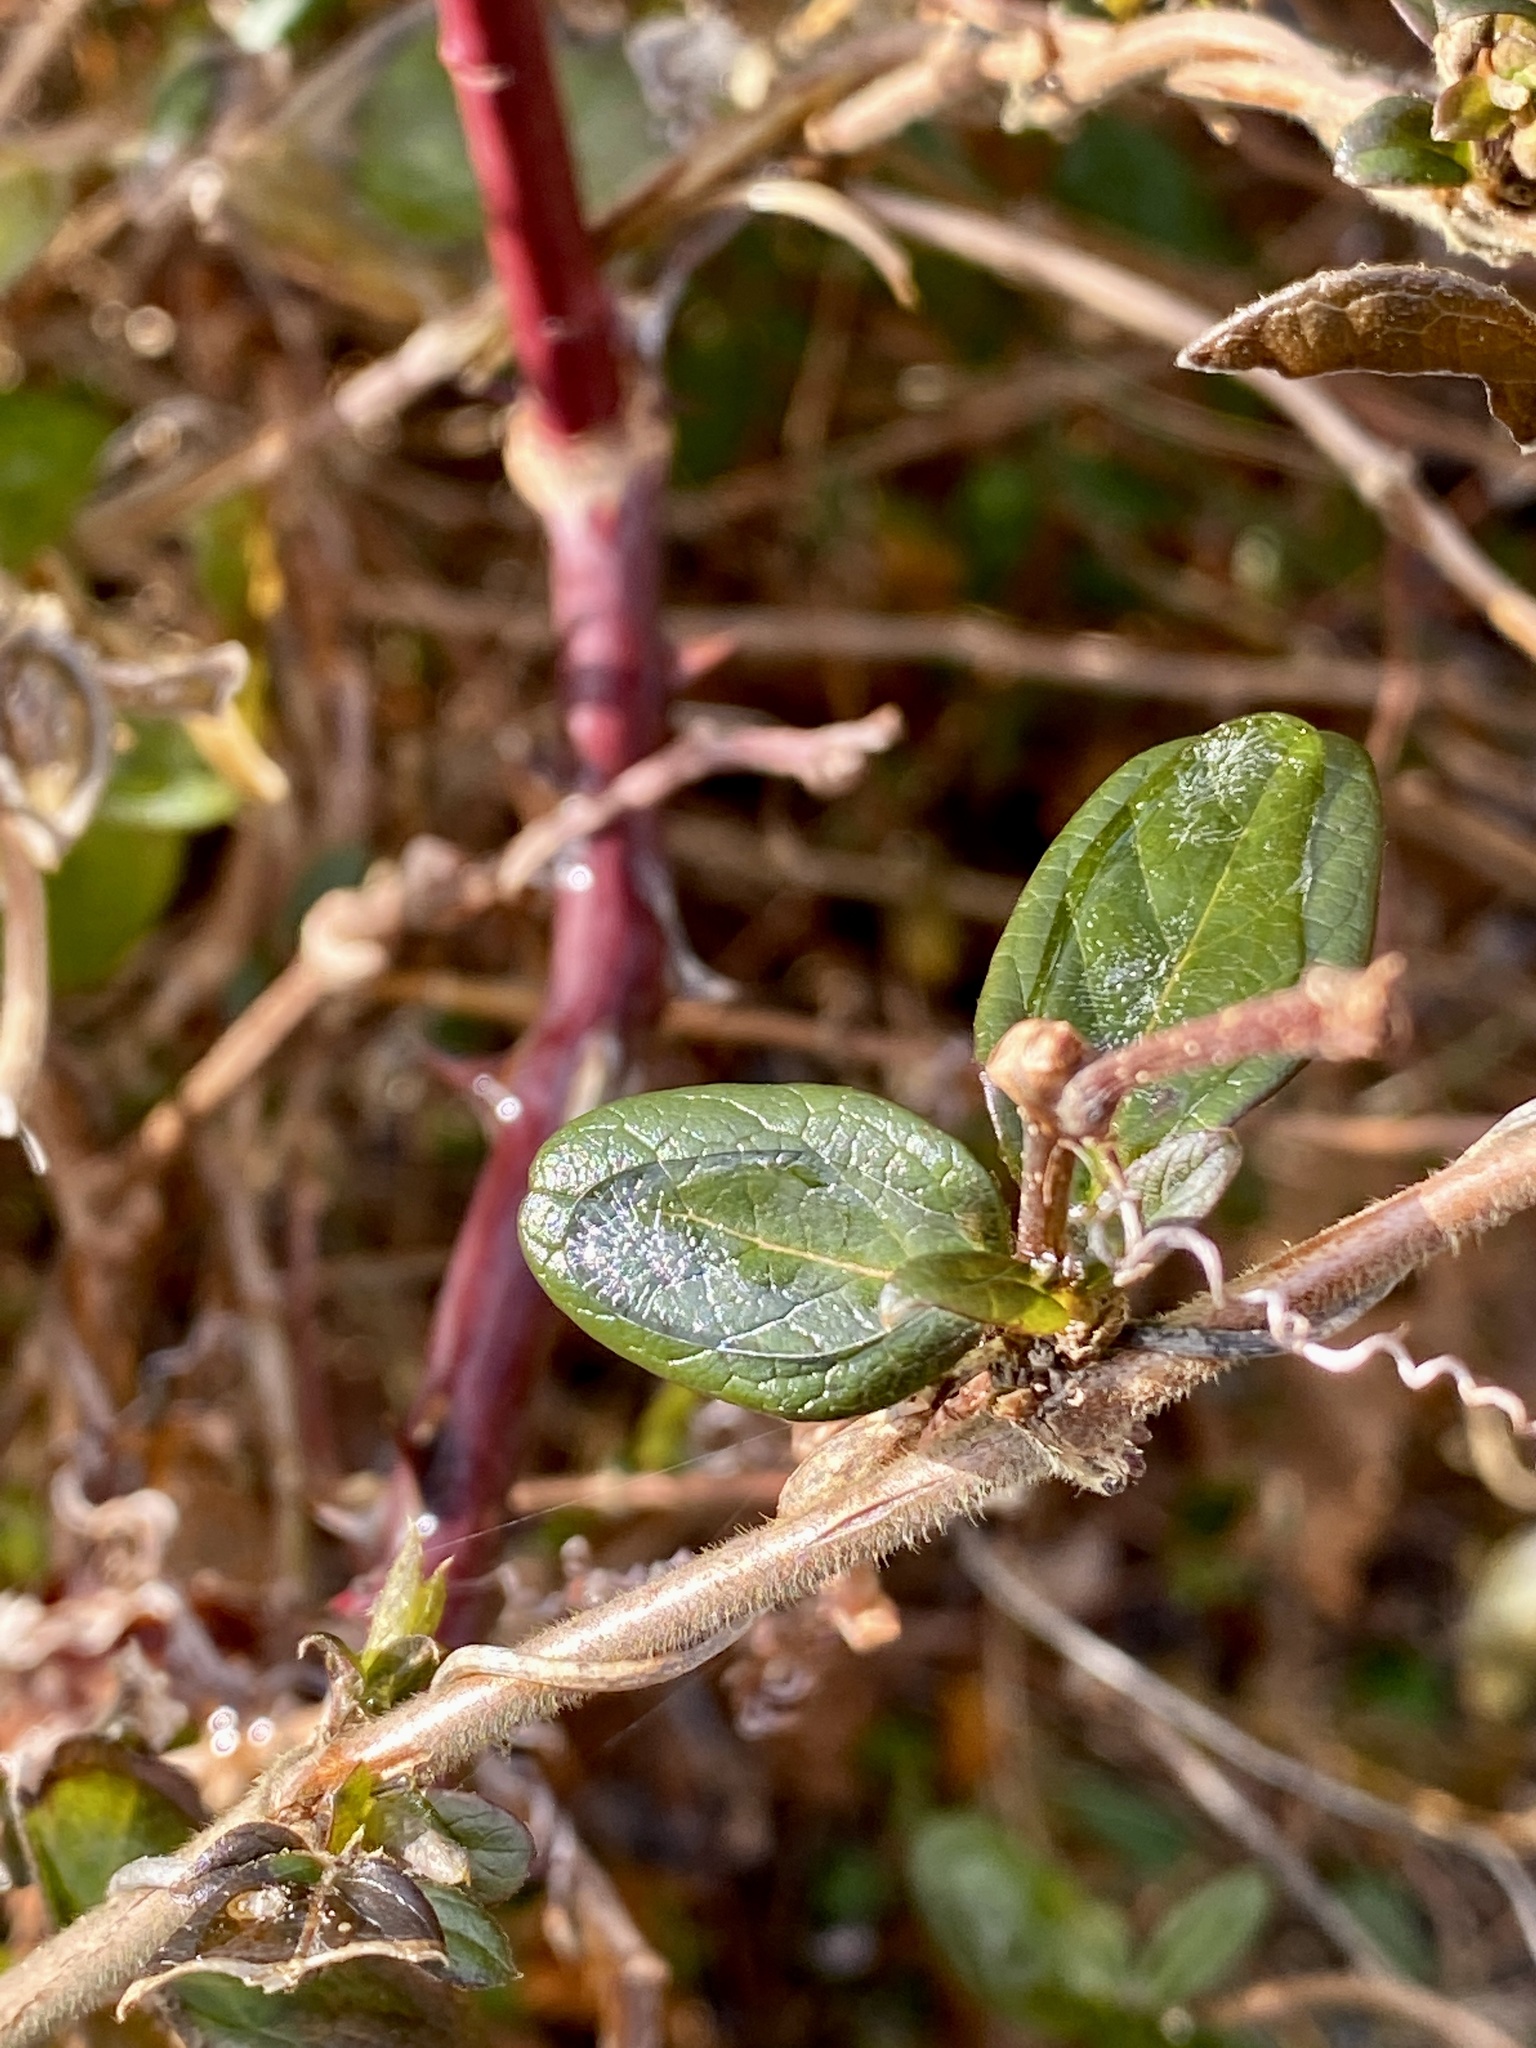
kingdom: Plantae
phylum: Tracheophyta
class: Magnoliopsida
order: Dipsacales
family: Caprifoliaceae
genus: Lonicera
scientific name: Lonicera japonica
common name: Japanese honeysuckle
